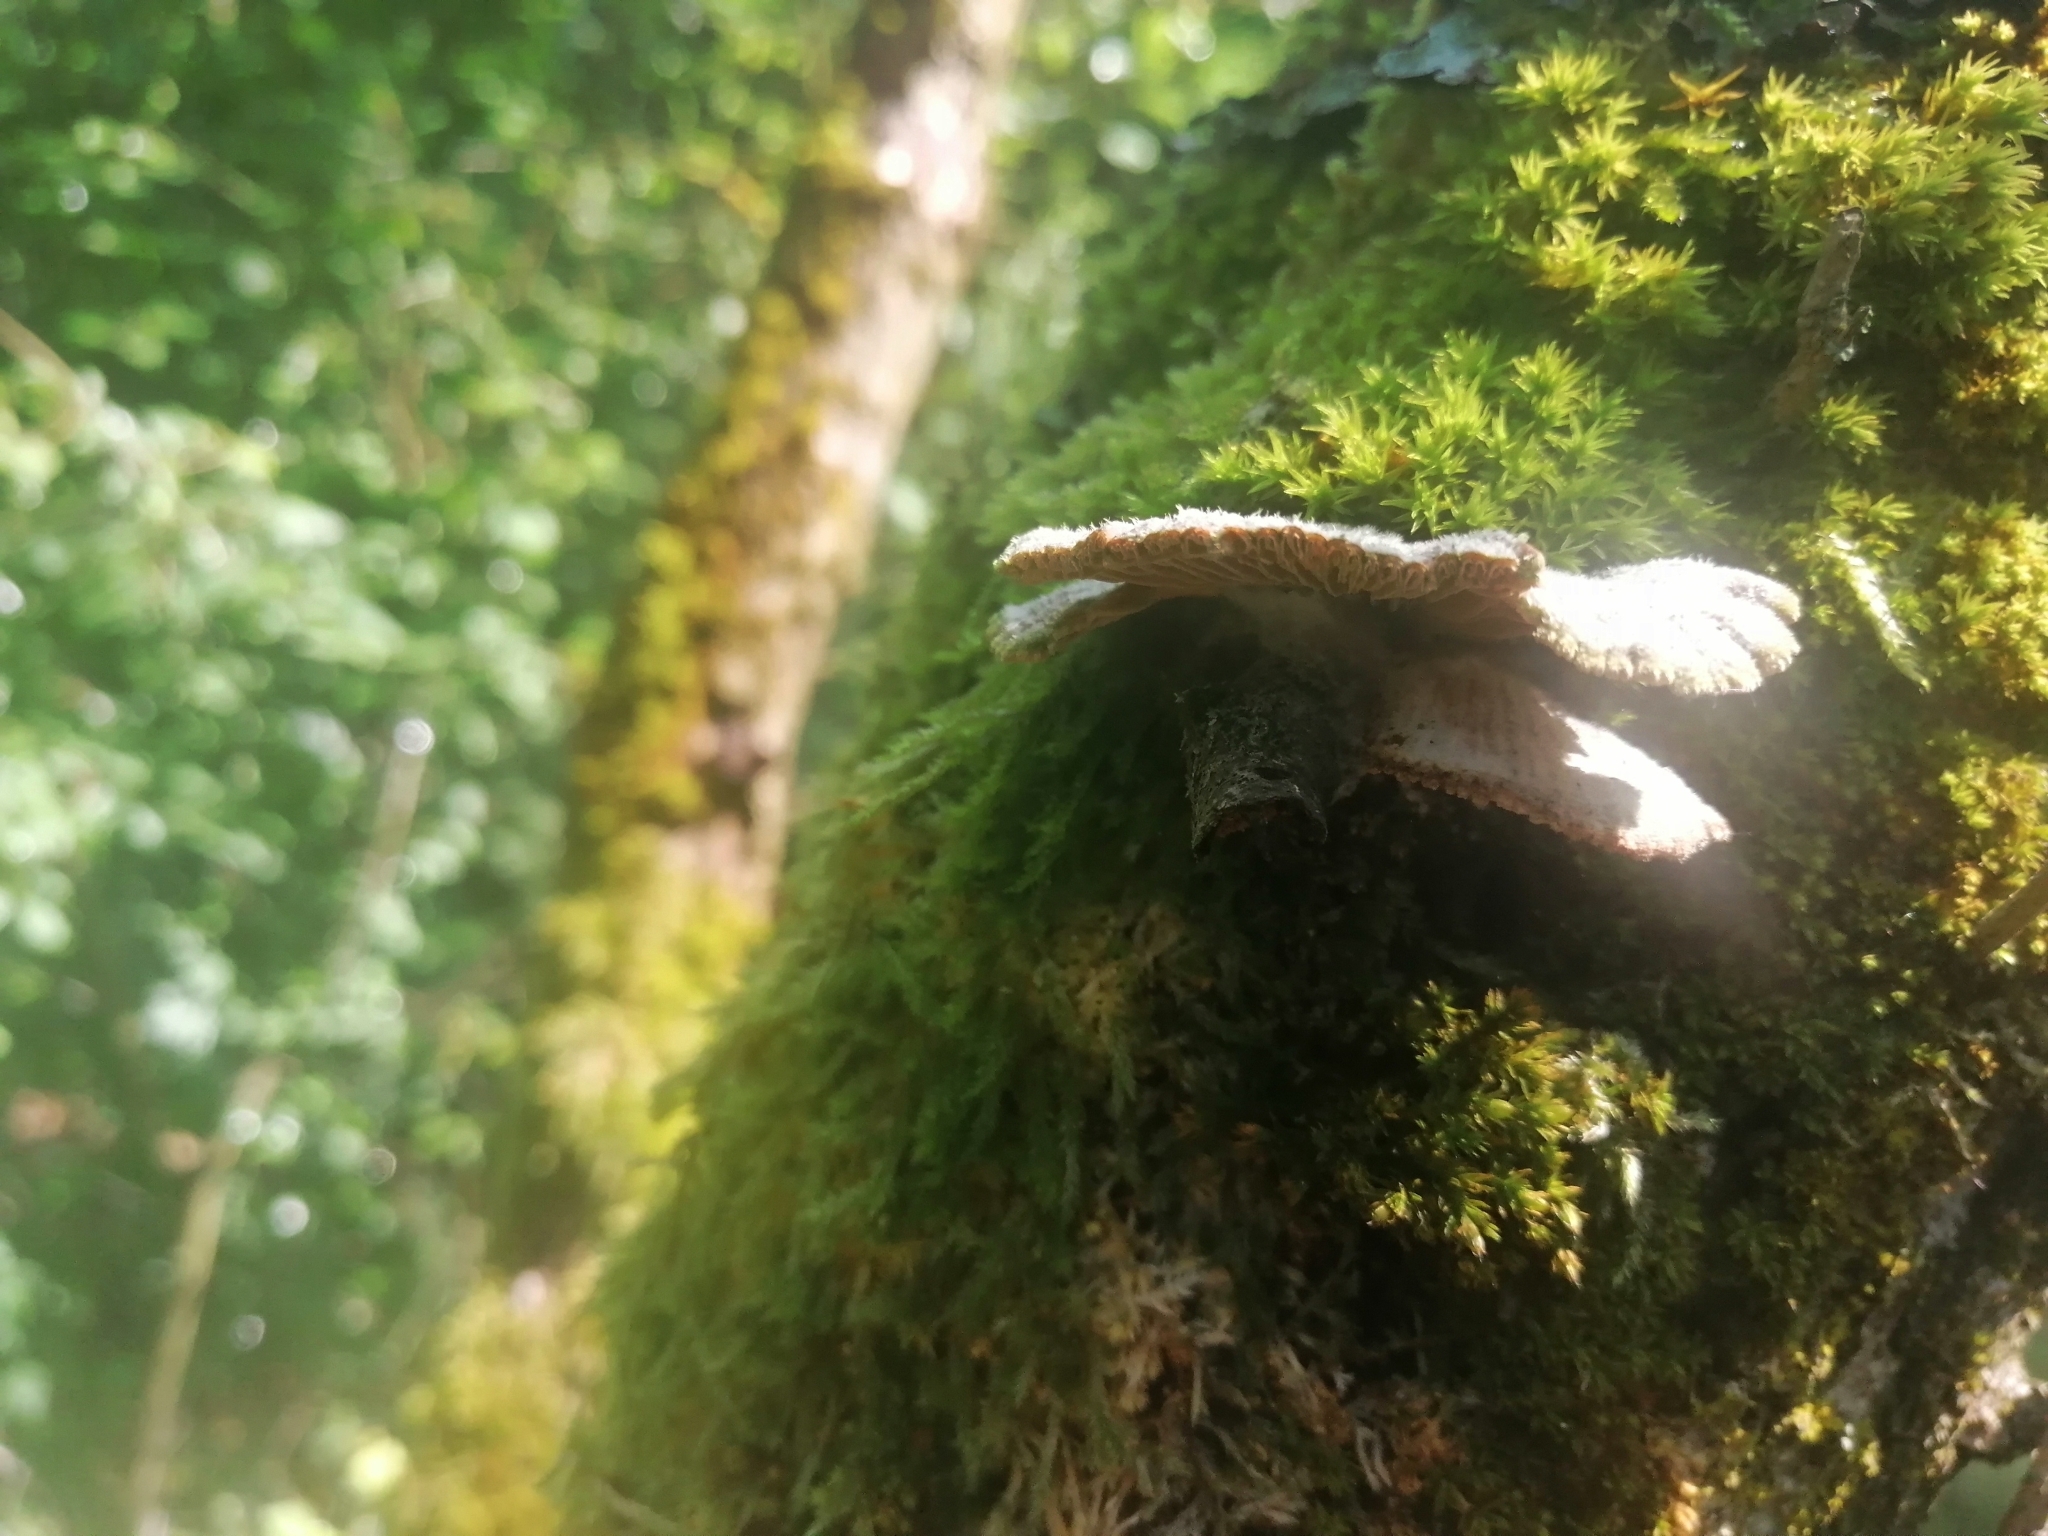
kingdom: Fungi
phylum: Basidiomycota
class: Agaricomycetes
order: Agaricales
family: Schizophyllaceae
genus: Schizophyllum
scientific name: Schizophyllum commune
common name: Common porecrust
